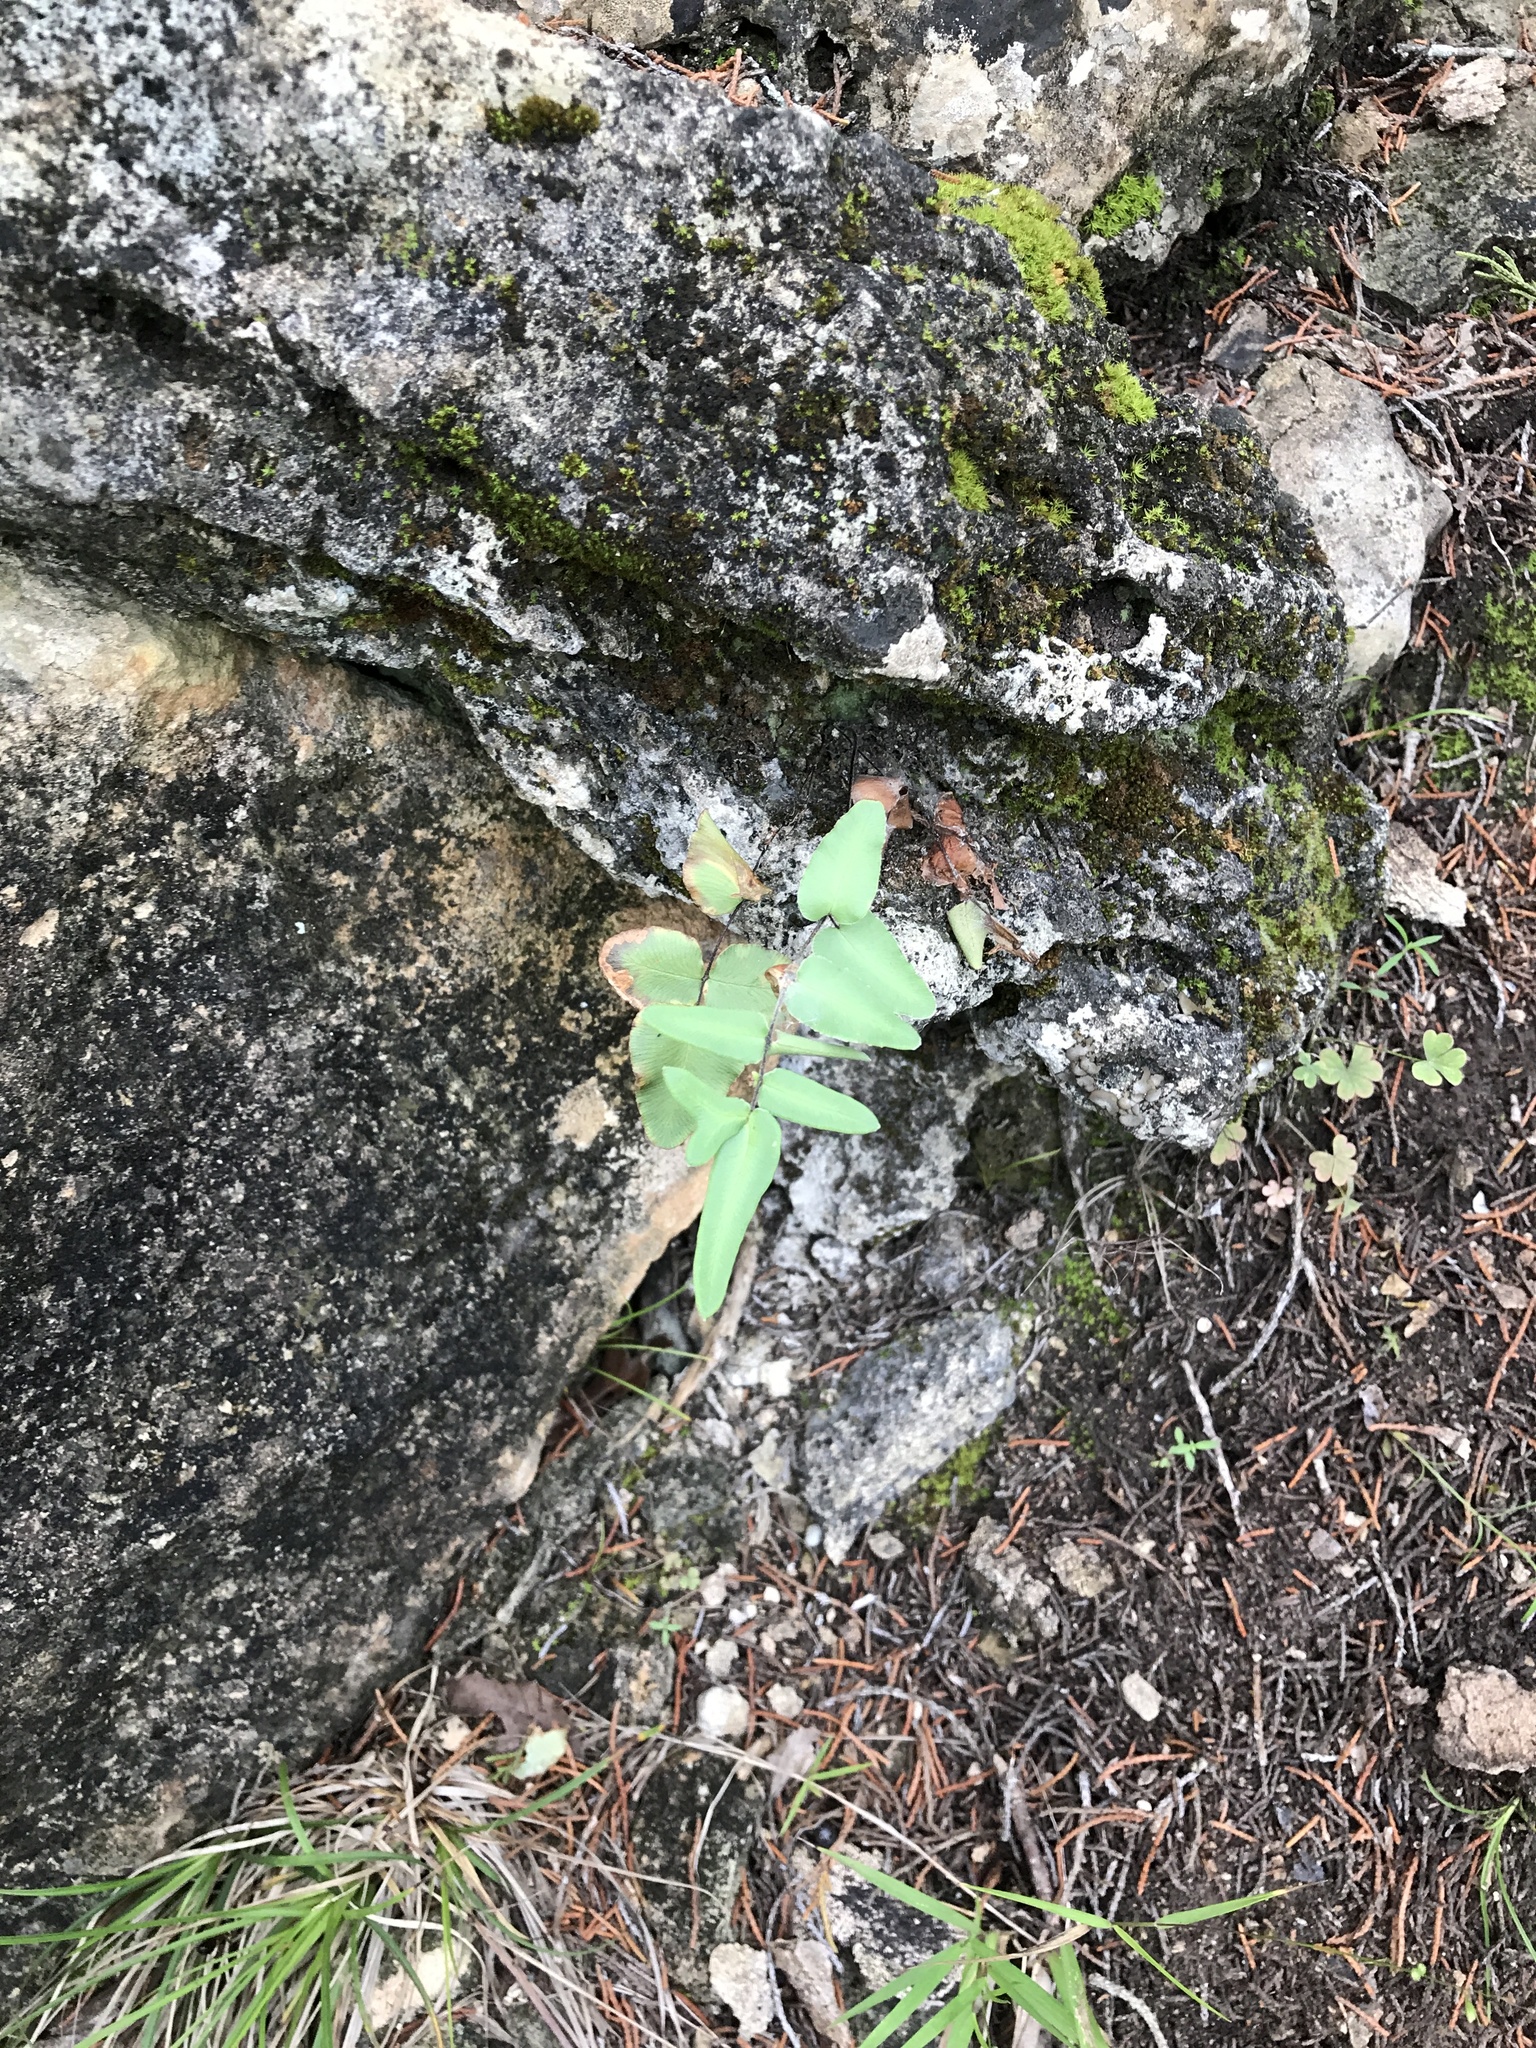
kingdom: Plantae
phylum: Tracheophyta
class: Polypodiopsida
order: Polypodiales
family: Pteridaceae
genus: Pellaea
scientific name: Pellaea atropurpurea
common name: Hairy cliffbrake
